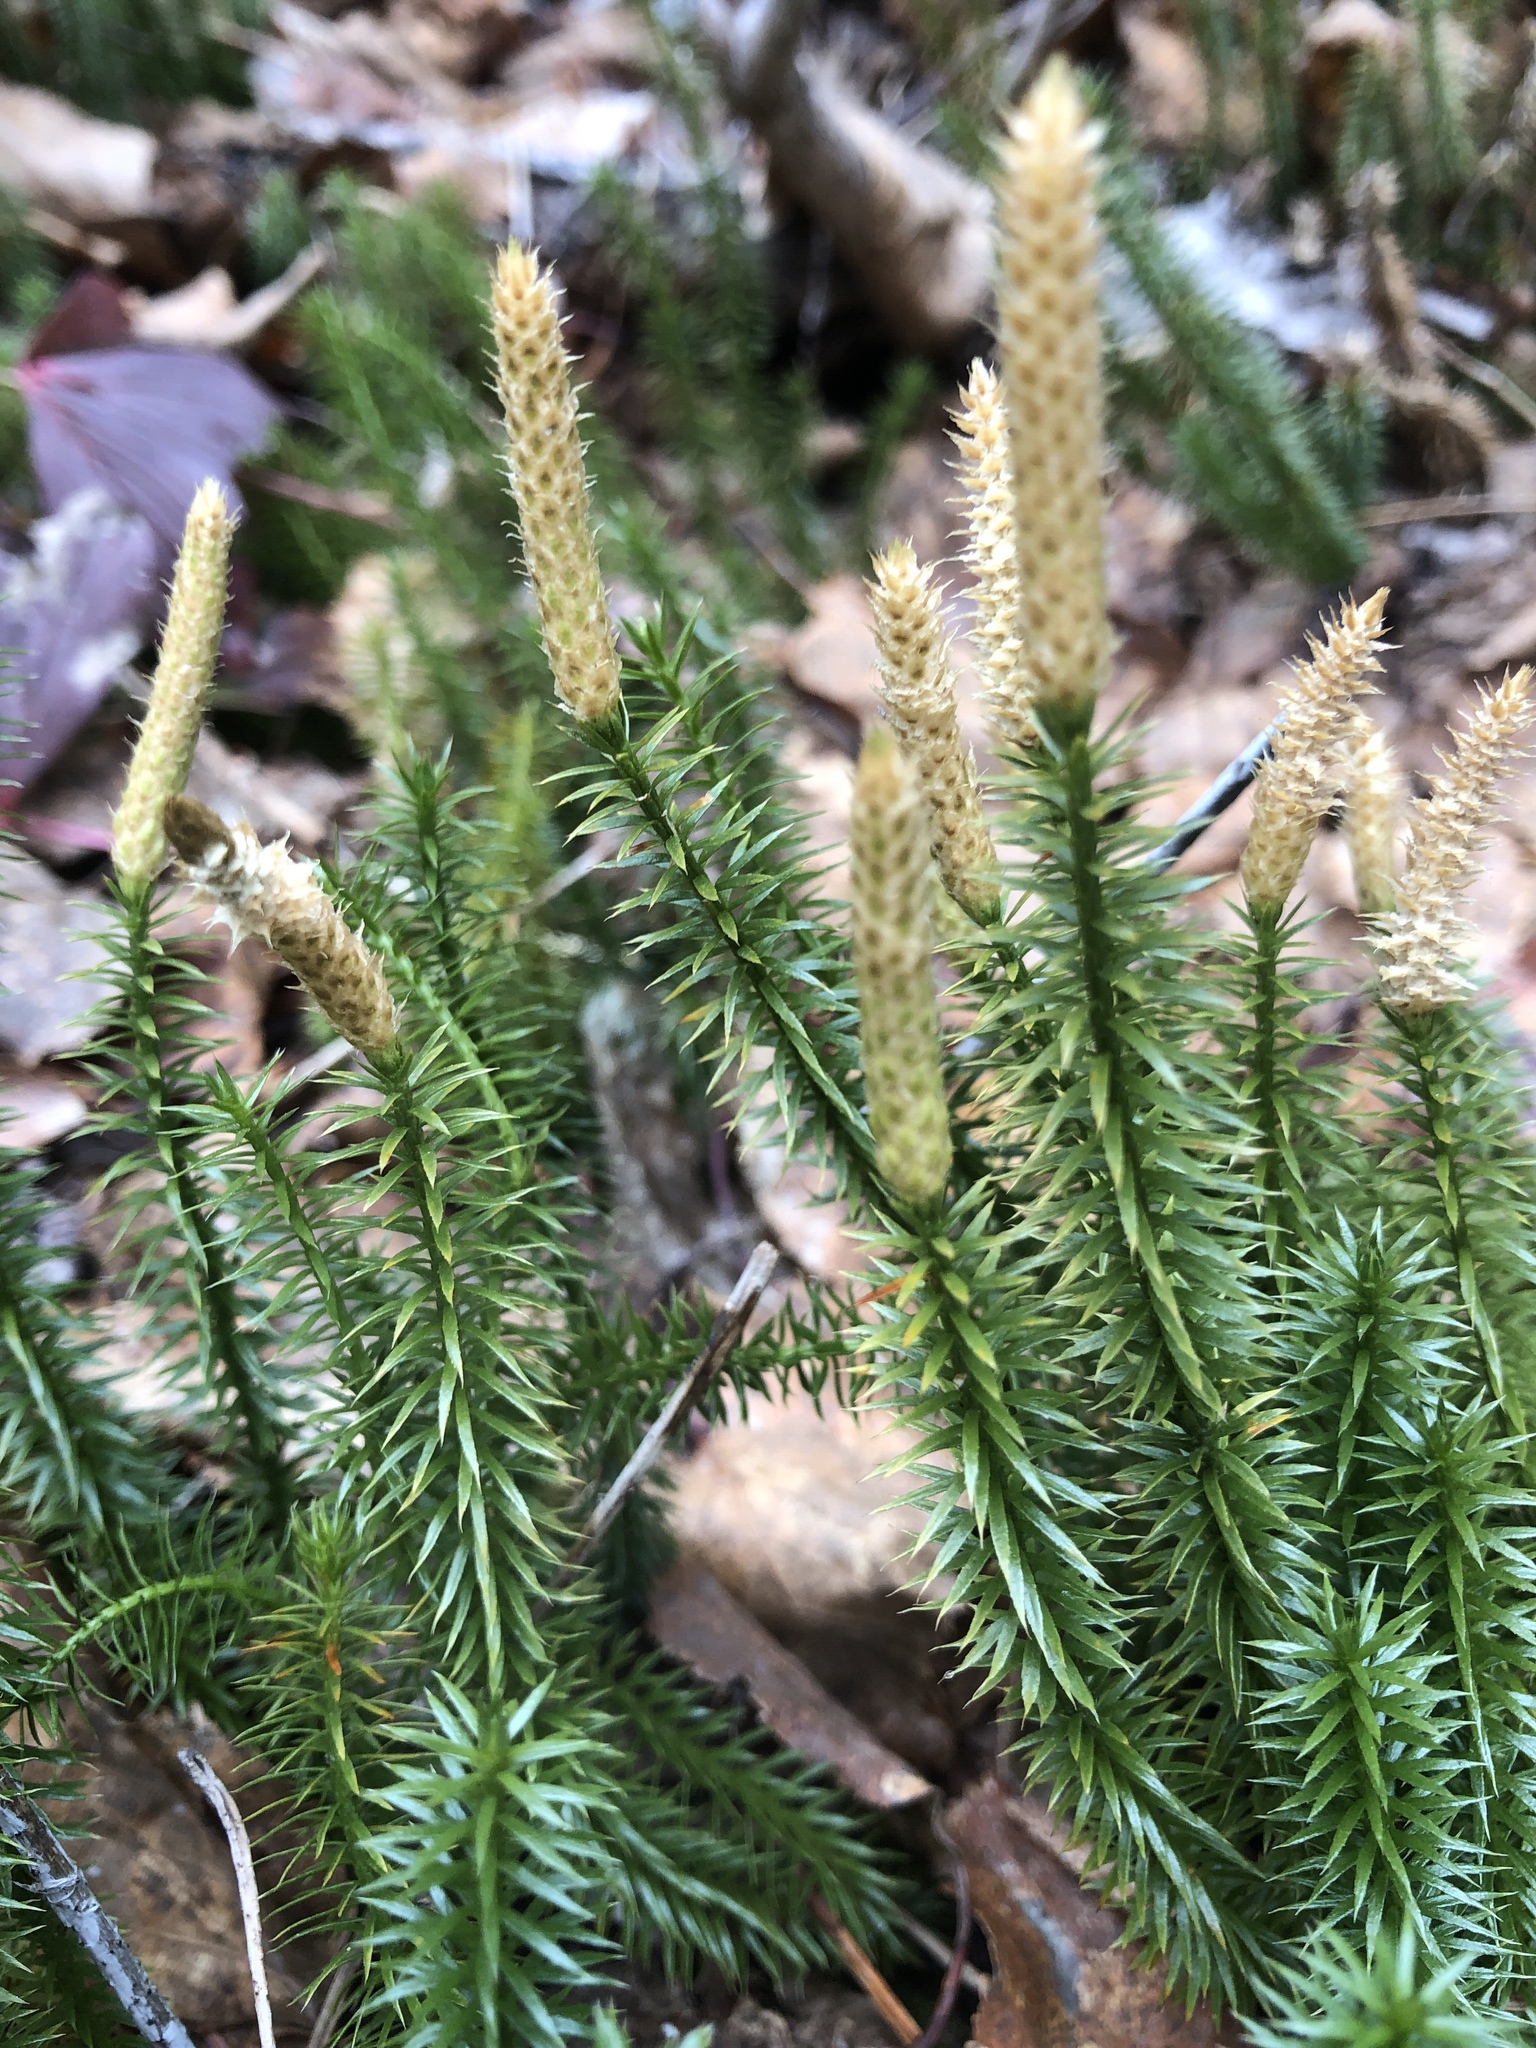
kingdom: Plantae
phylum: Tracheophyta
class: Lycopodiopsida
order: Lycopodiales
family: Lycopodiaceae
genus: Spinulum
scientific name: Spinulum annotinum
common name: Interrupted club-moss
